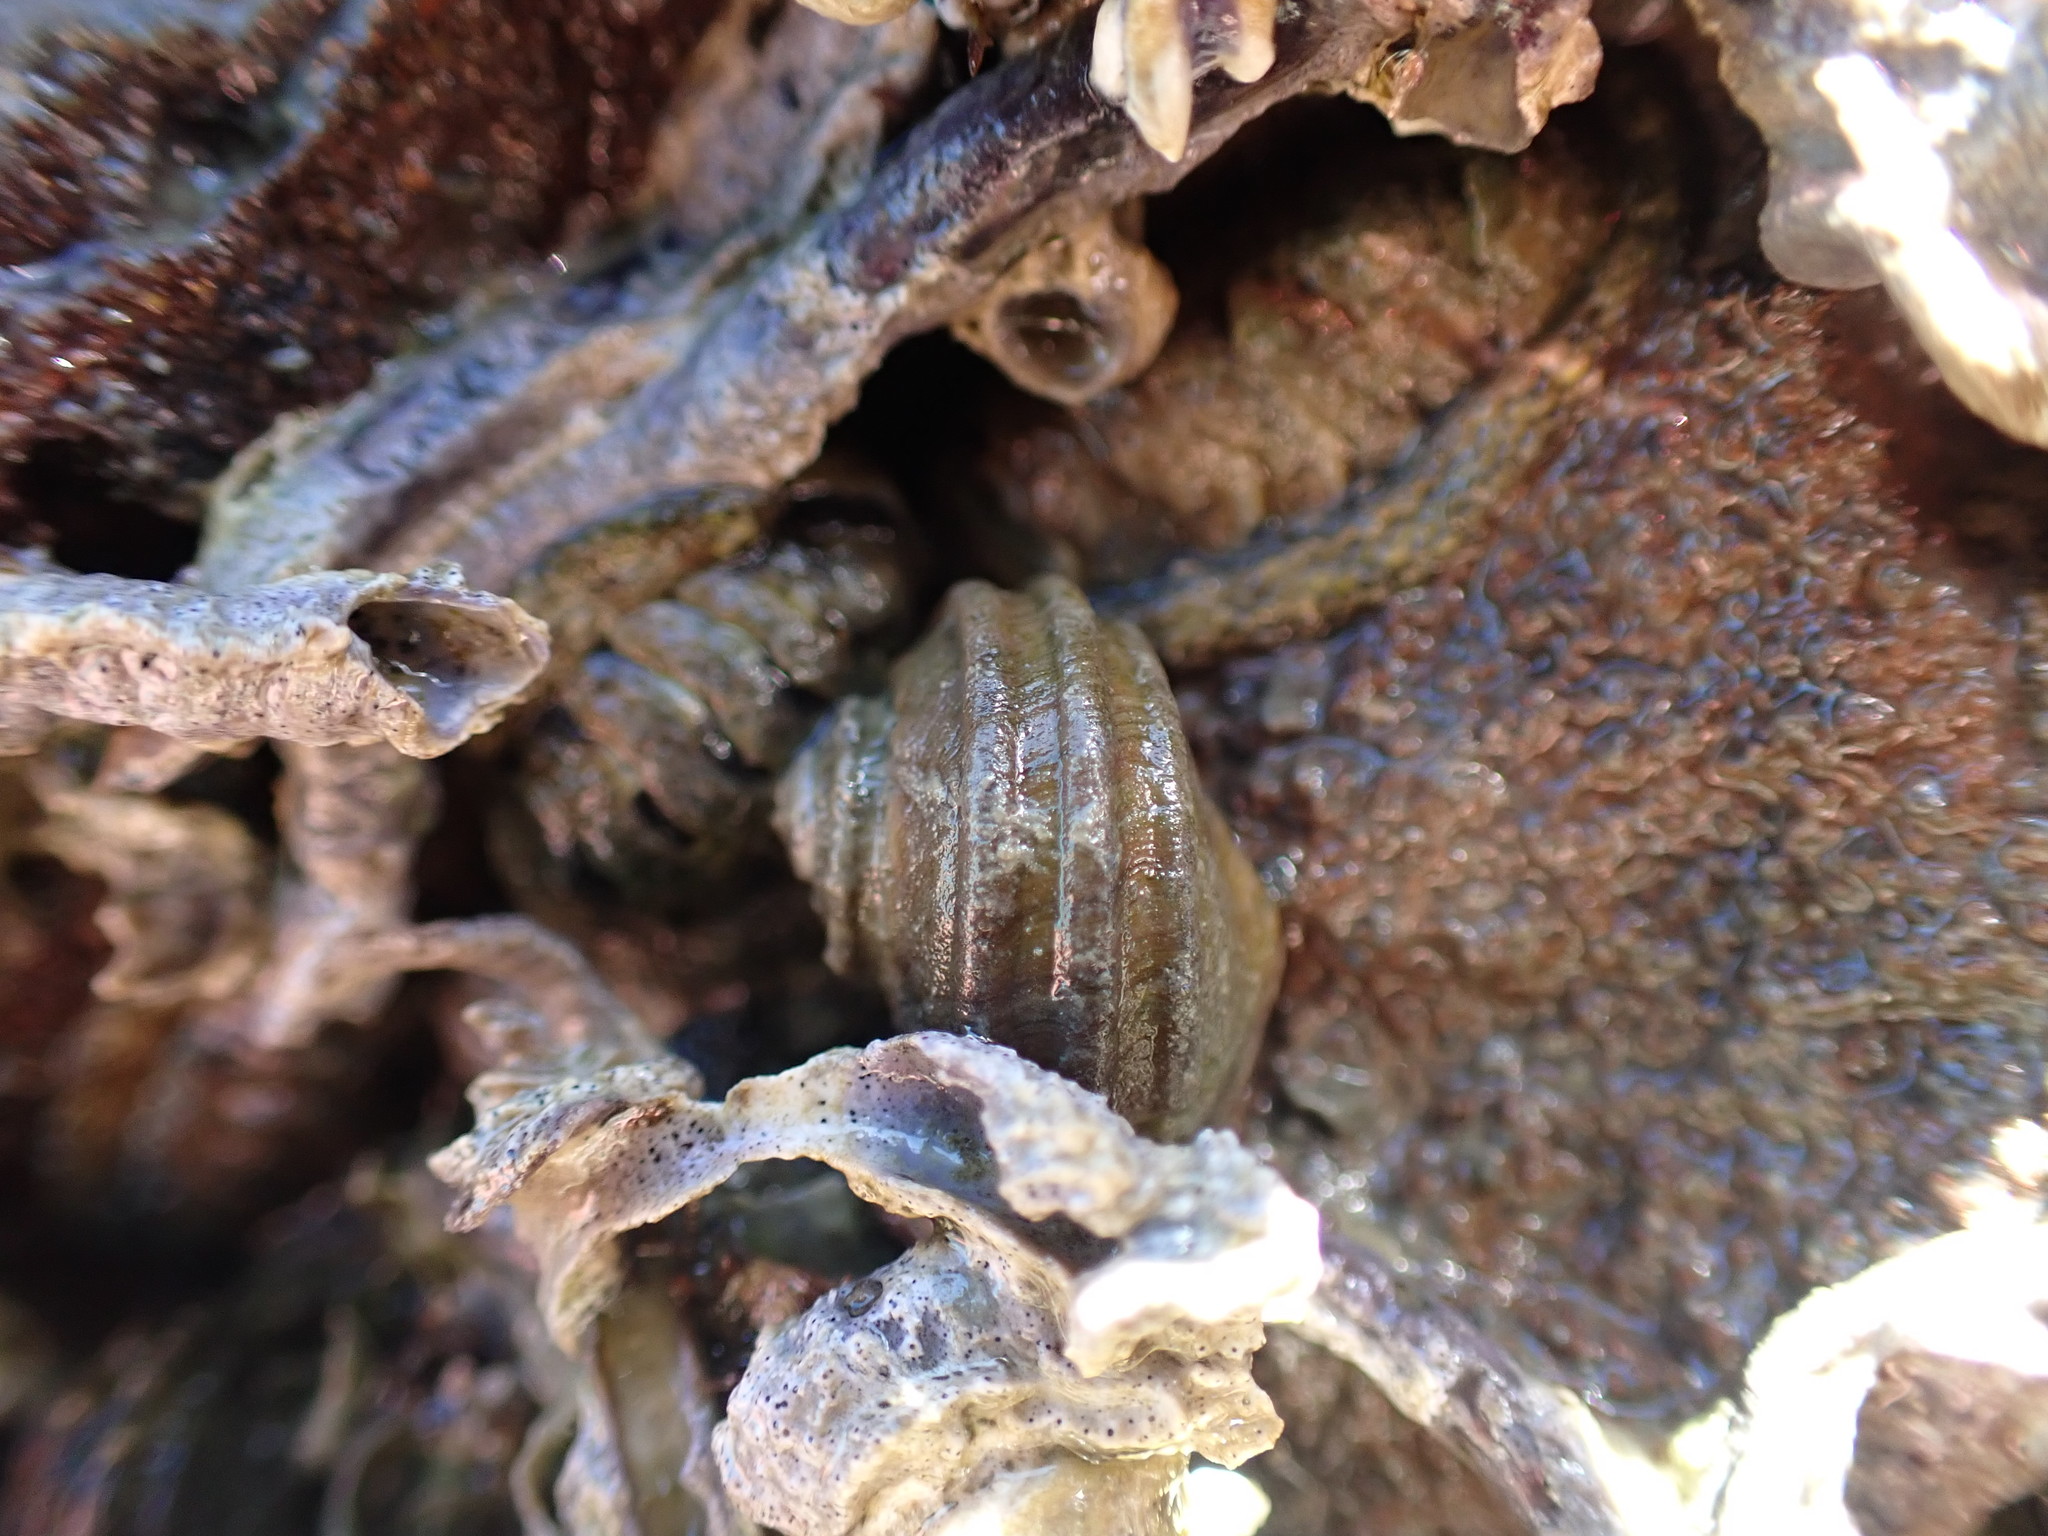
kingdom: Animalia
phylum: Mollusca
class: Gastropoda
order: Trochida
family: Turbinidae
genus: Lunella
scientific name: Lunella smaragda
